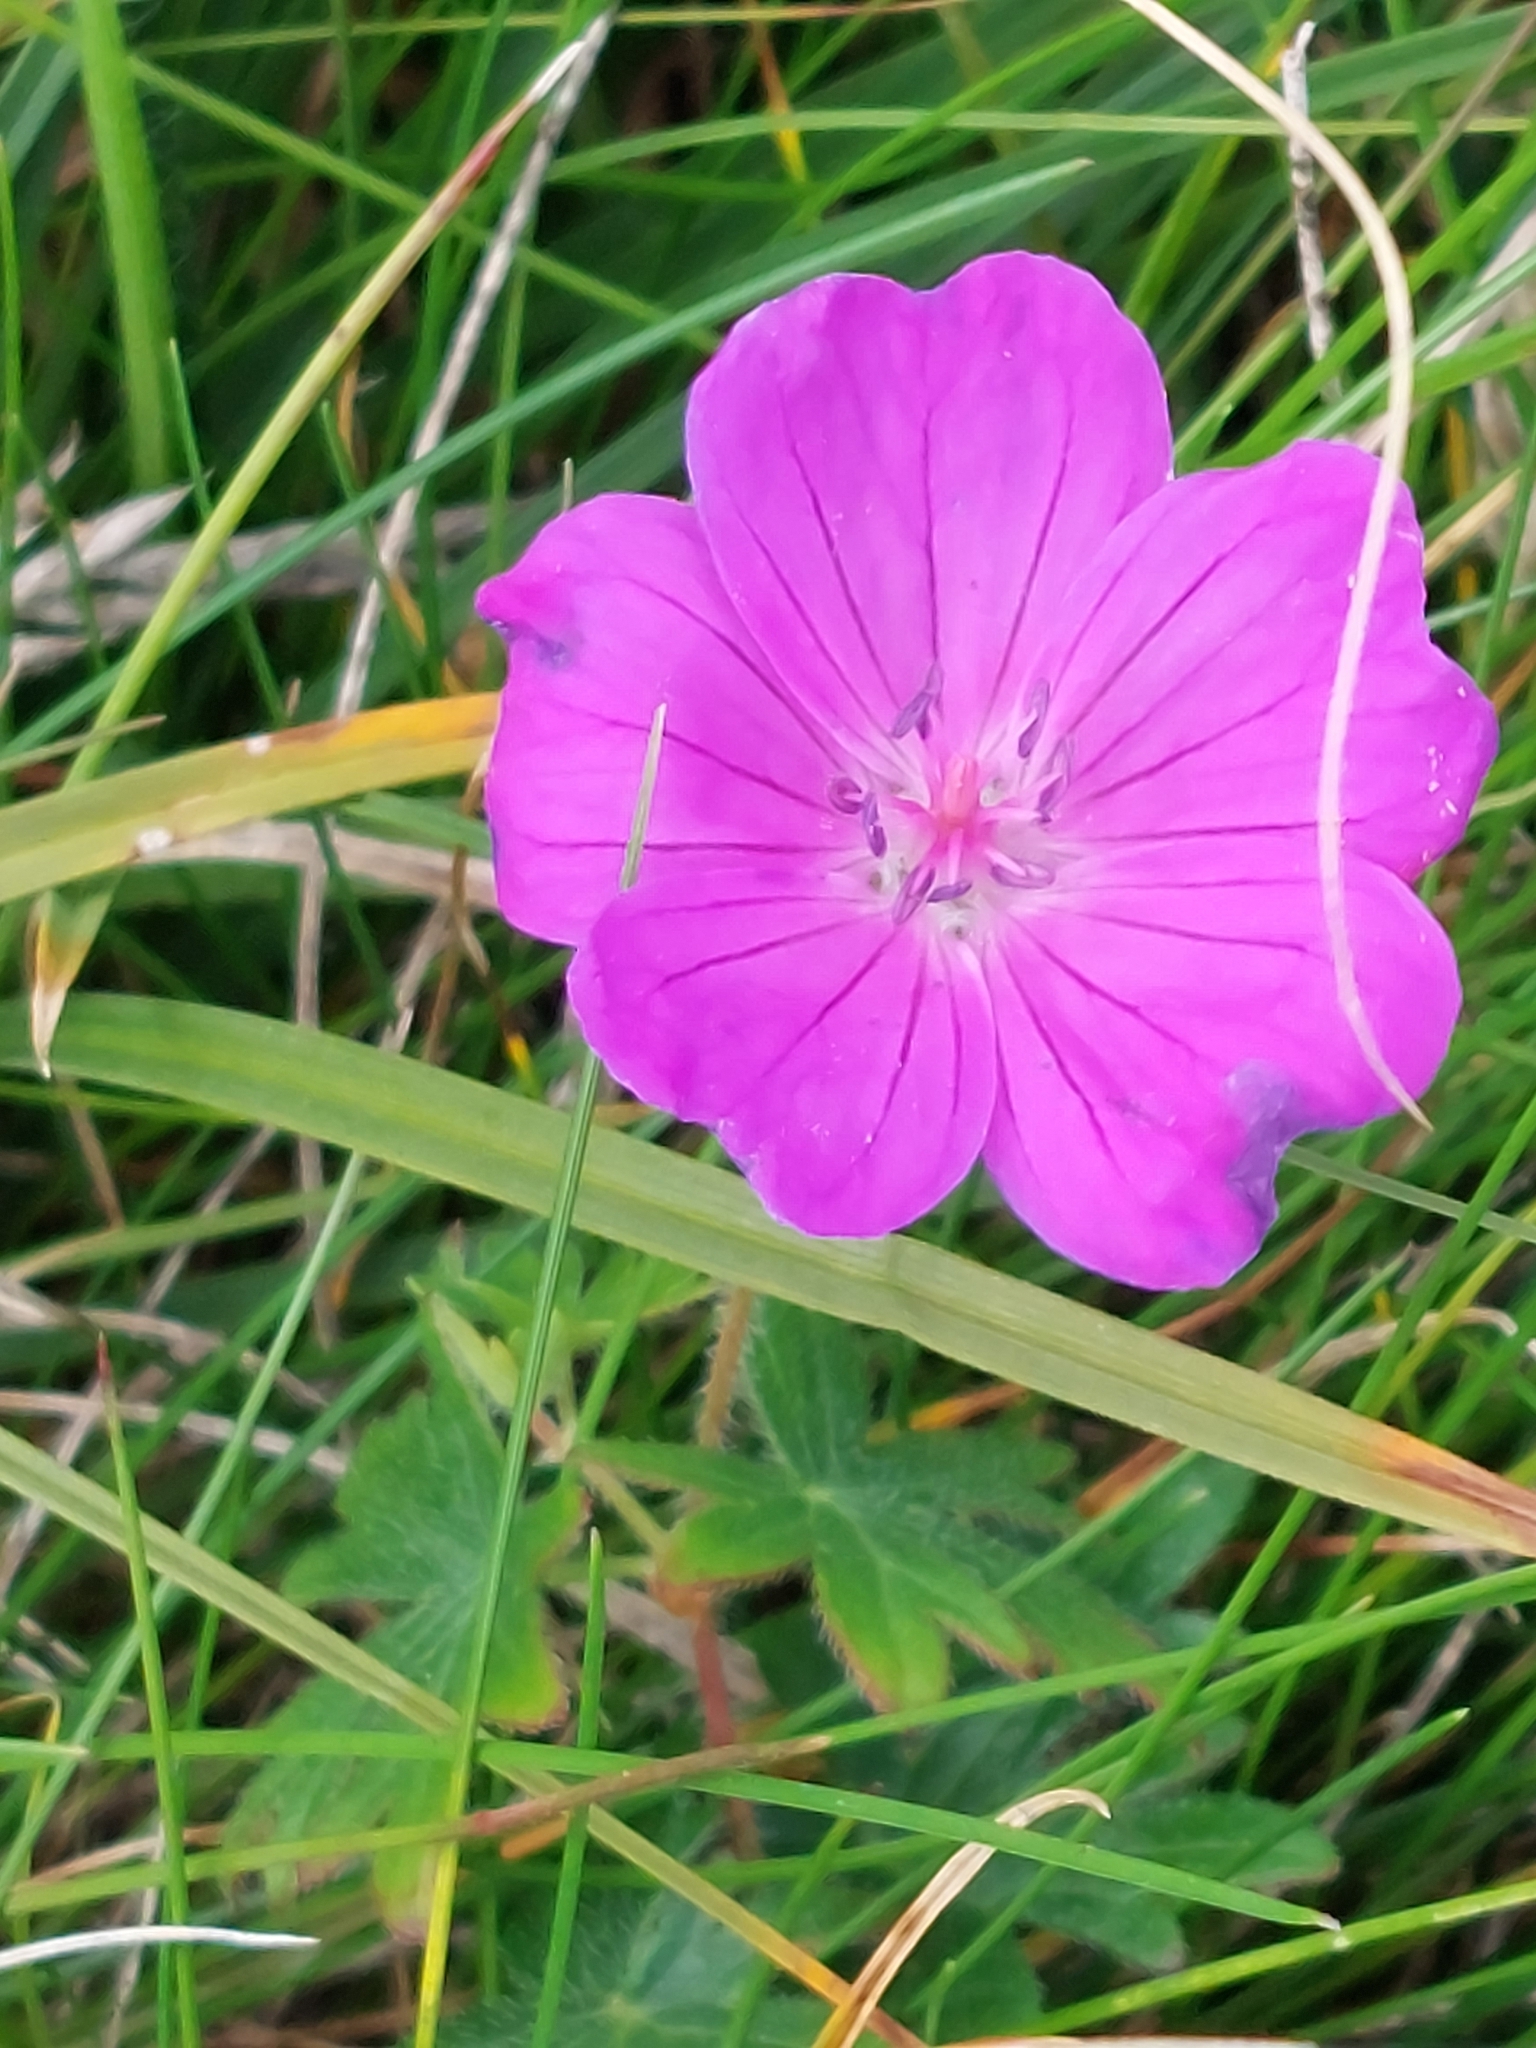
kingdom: Plantae
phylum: Tracheophyta
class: Magnoliopsida
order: Geraniales
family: Geraniaceae
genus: Geranium
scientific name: Geranium sanguineum
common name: Bloody crane's-bill
